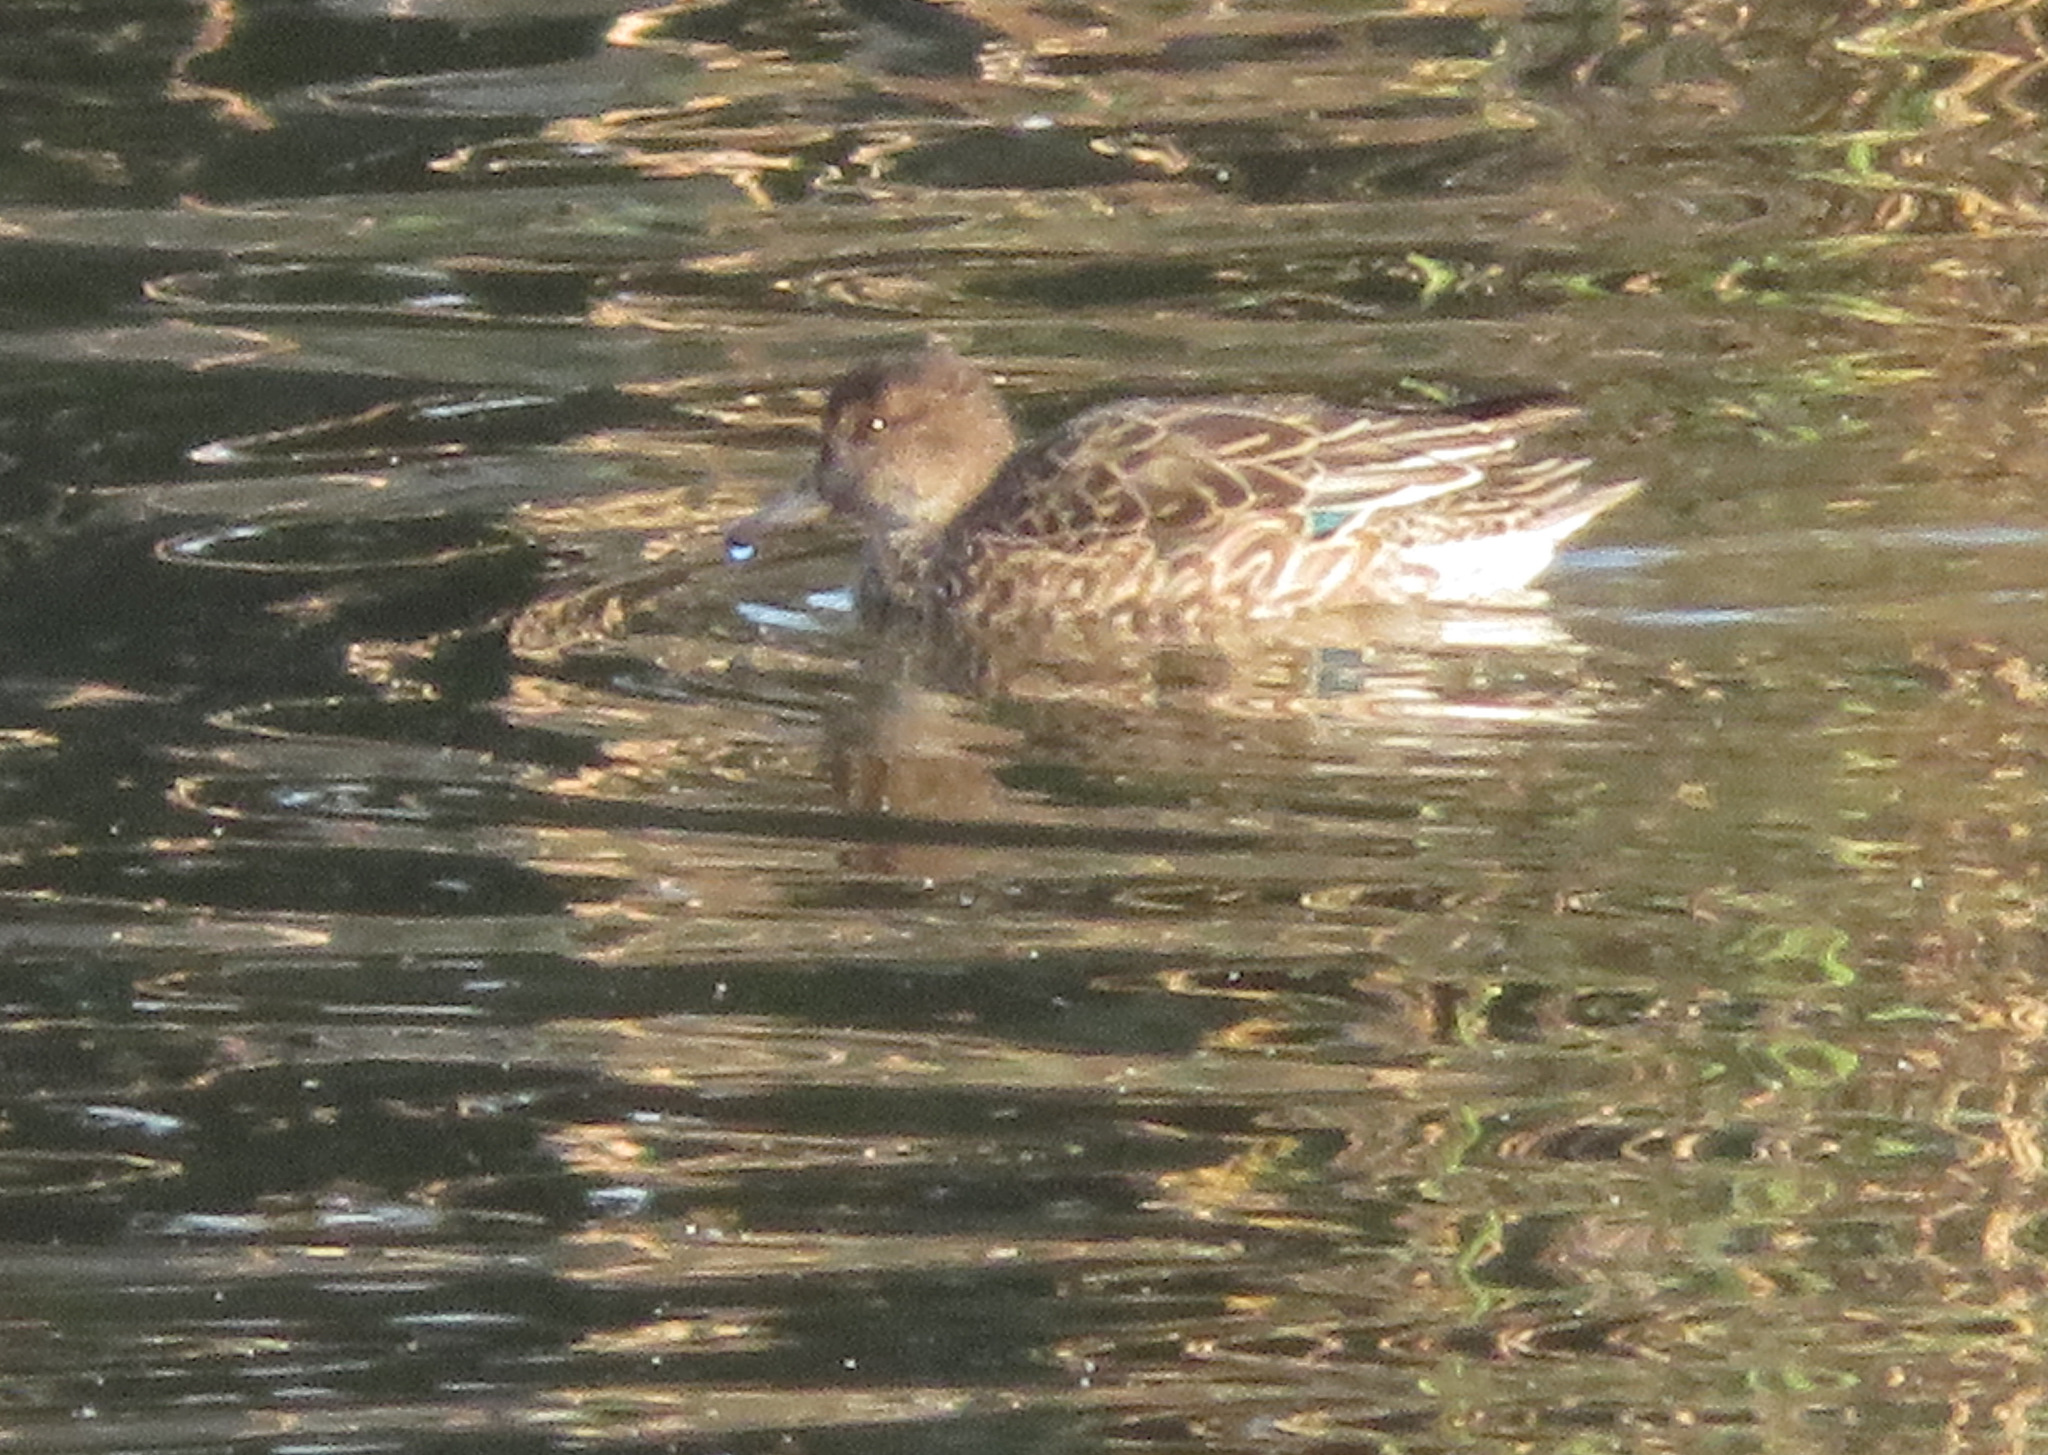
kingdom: Animalia
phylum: Chordata
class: Aves
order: Anseriformes
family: Anatidae
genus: Anas
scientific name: Anas crecca
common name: Eurasian teal
